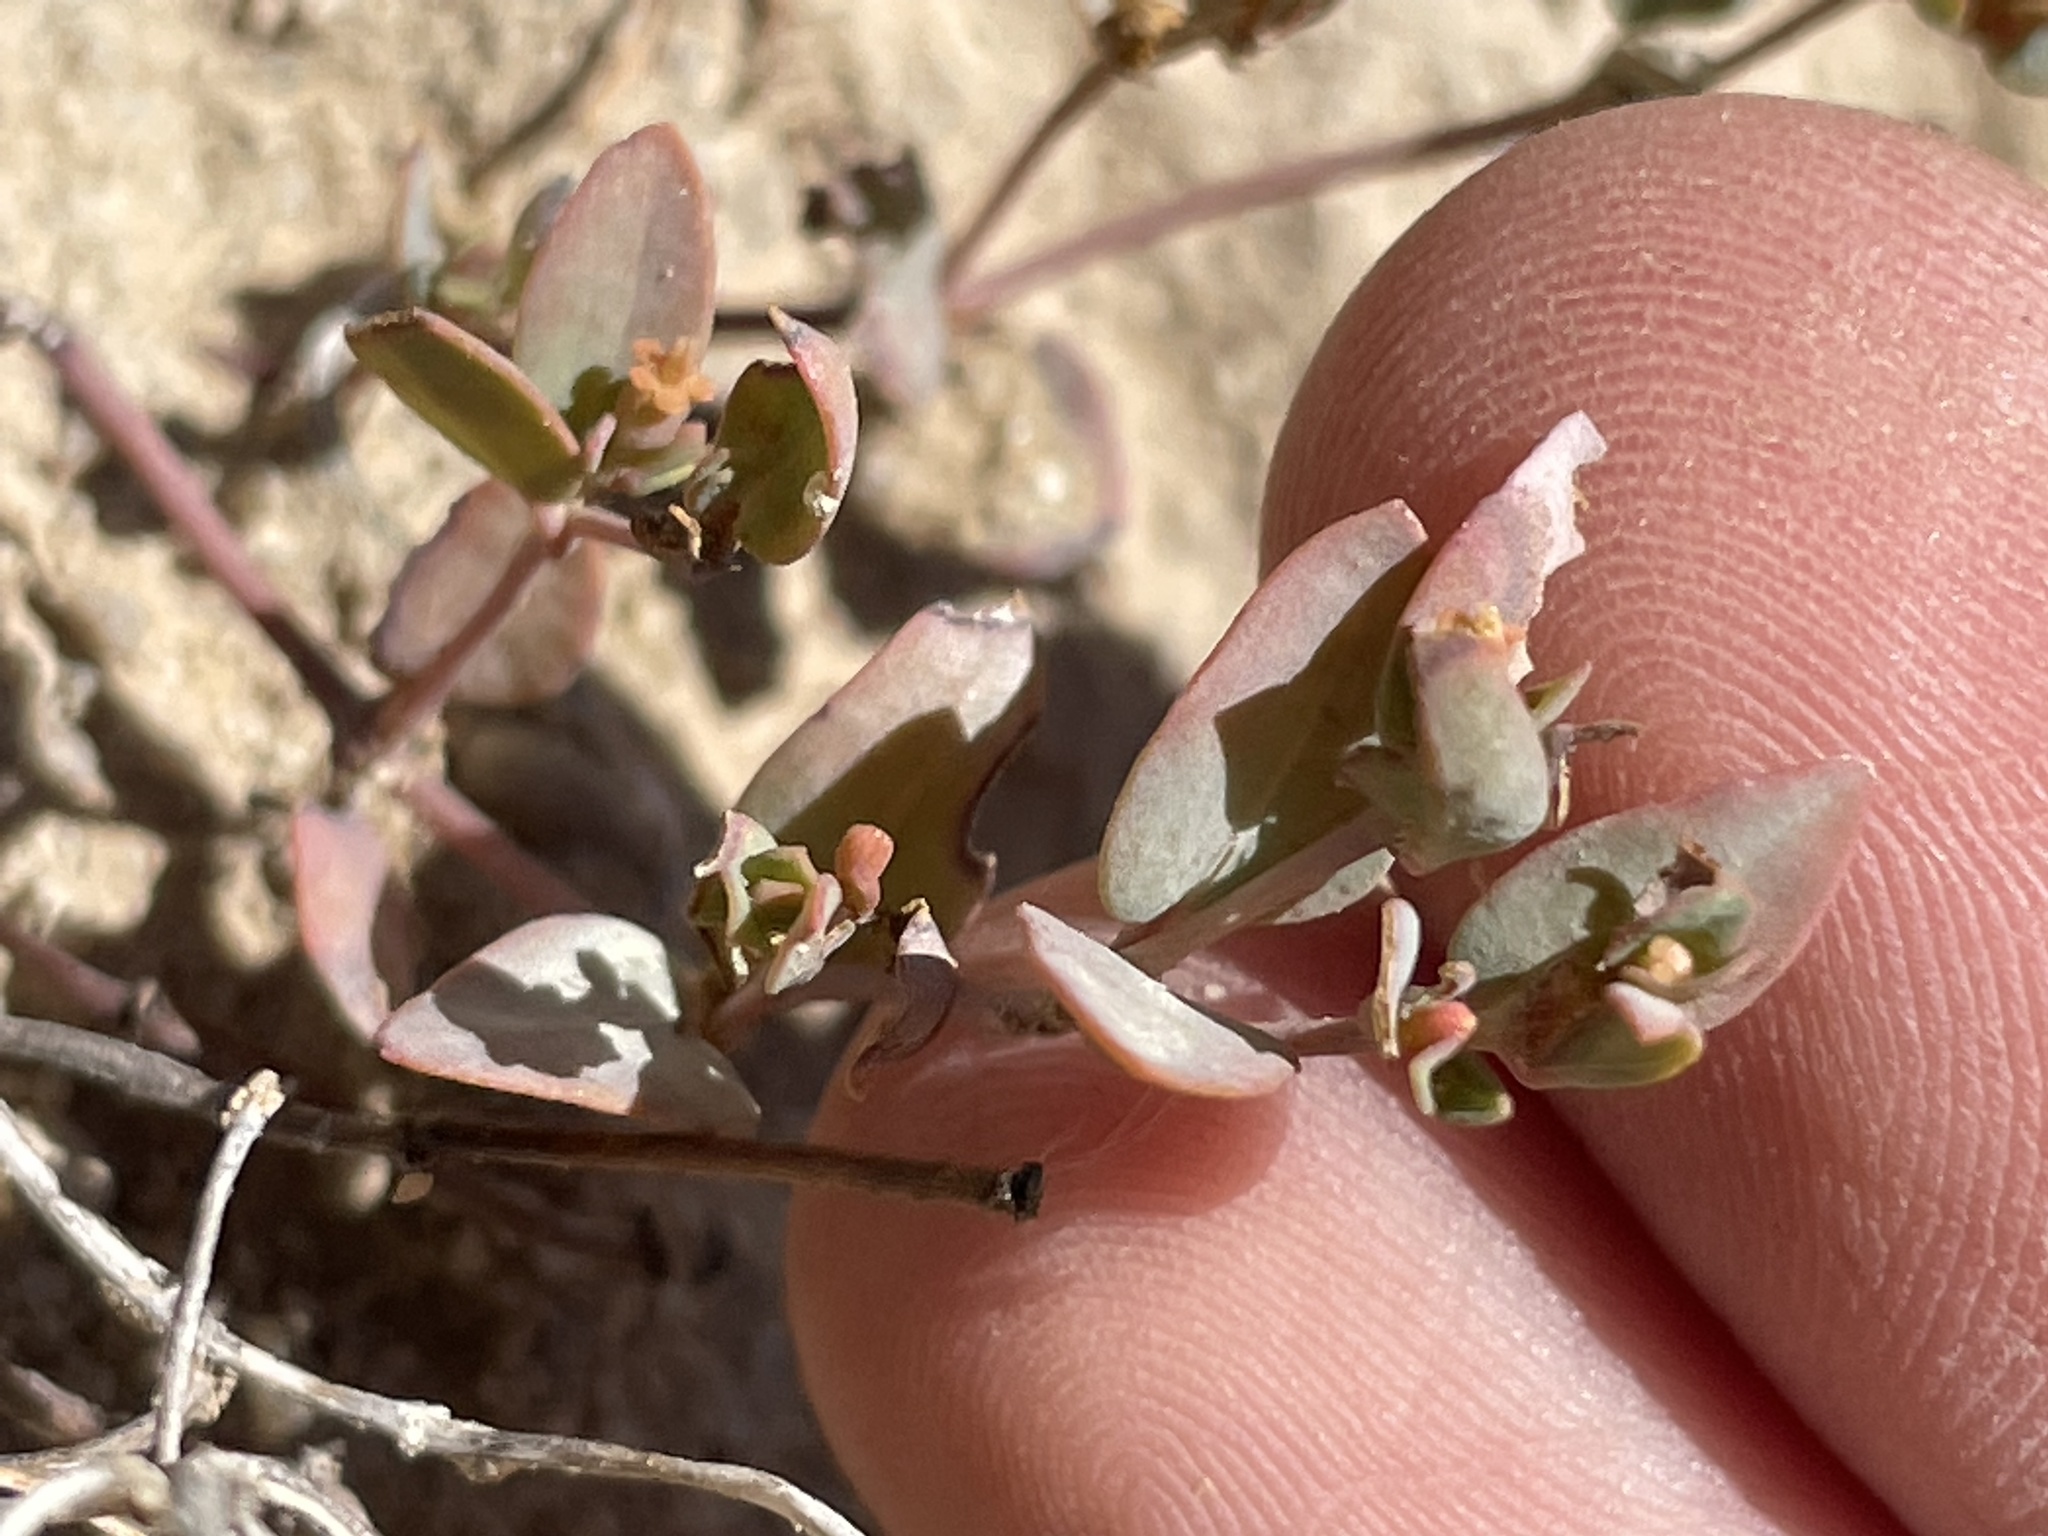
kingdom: Plantae
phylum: Tracheophyta
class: Magnoliopsida
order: Malpighiales
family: Euphorbiaceae
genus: Euphorbia
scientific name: Euphorbia fendleri
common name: Fendler's euphorbia
